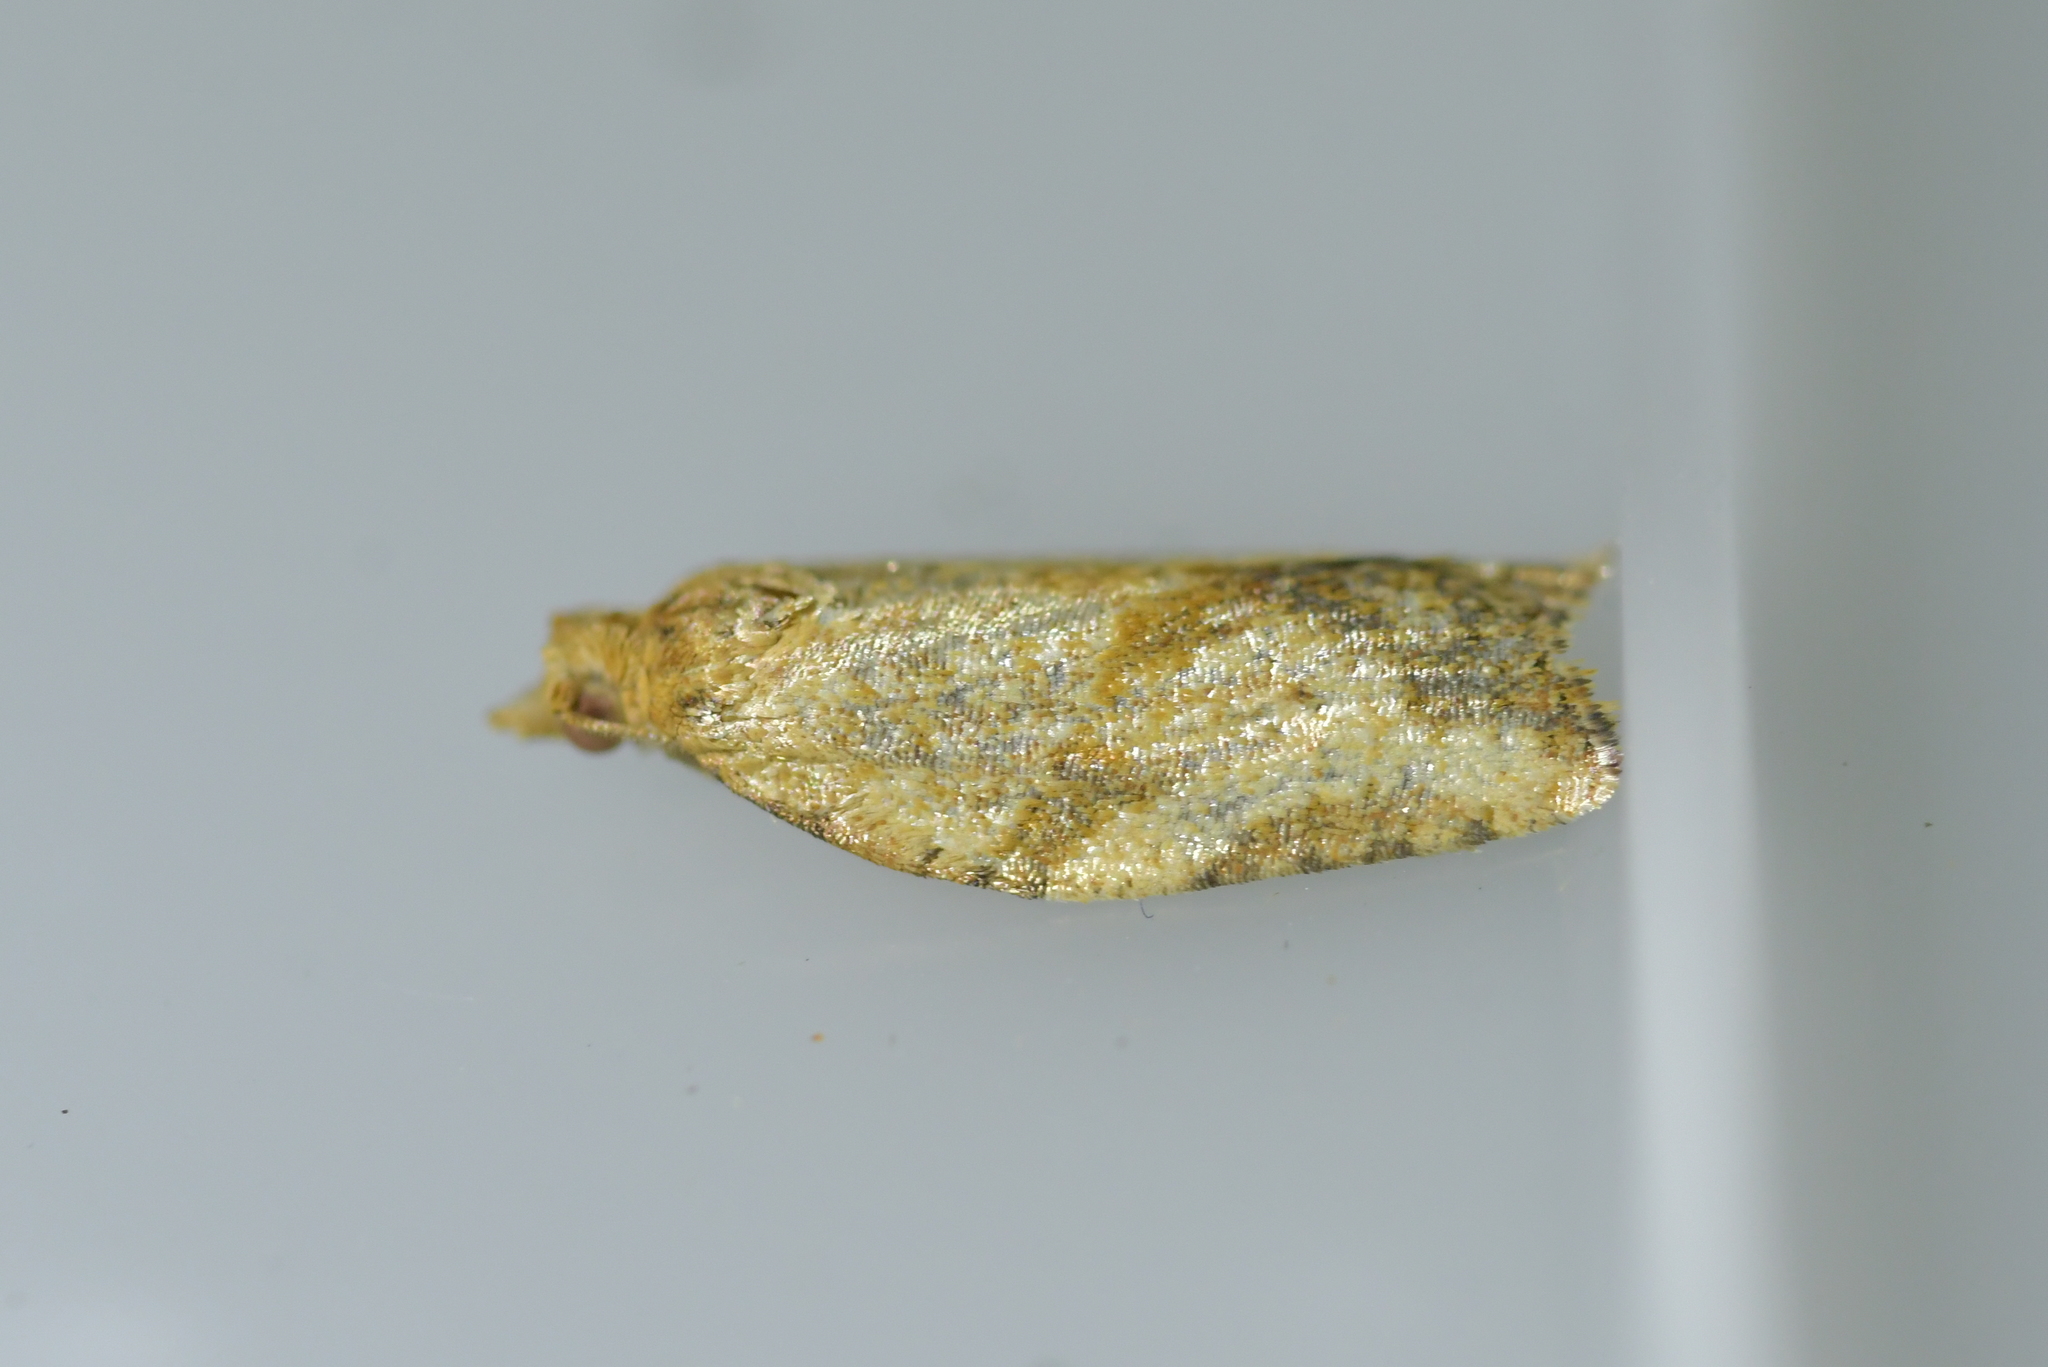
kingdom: Animalia
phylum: Arthropoda
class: Insecta
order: Lepidoptera
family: Tortricidae
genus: Epiphyas
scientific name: Epiphyas postvittana
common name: Light brown apple moth
